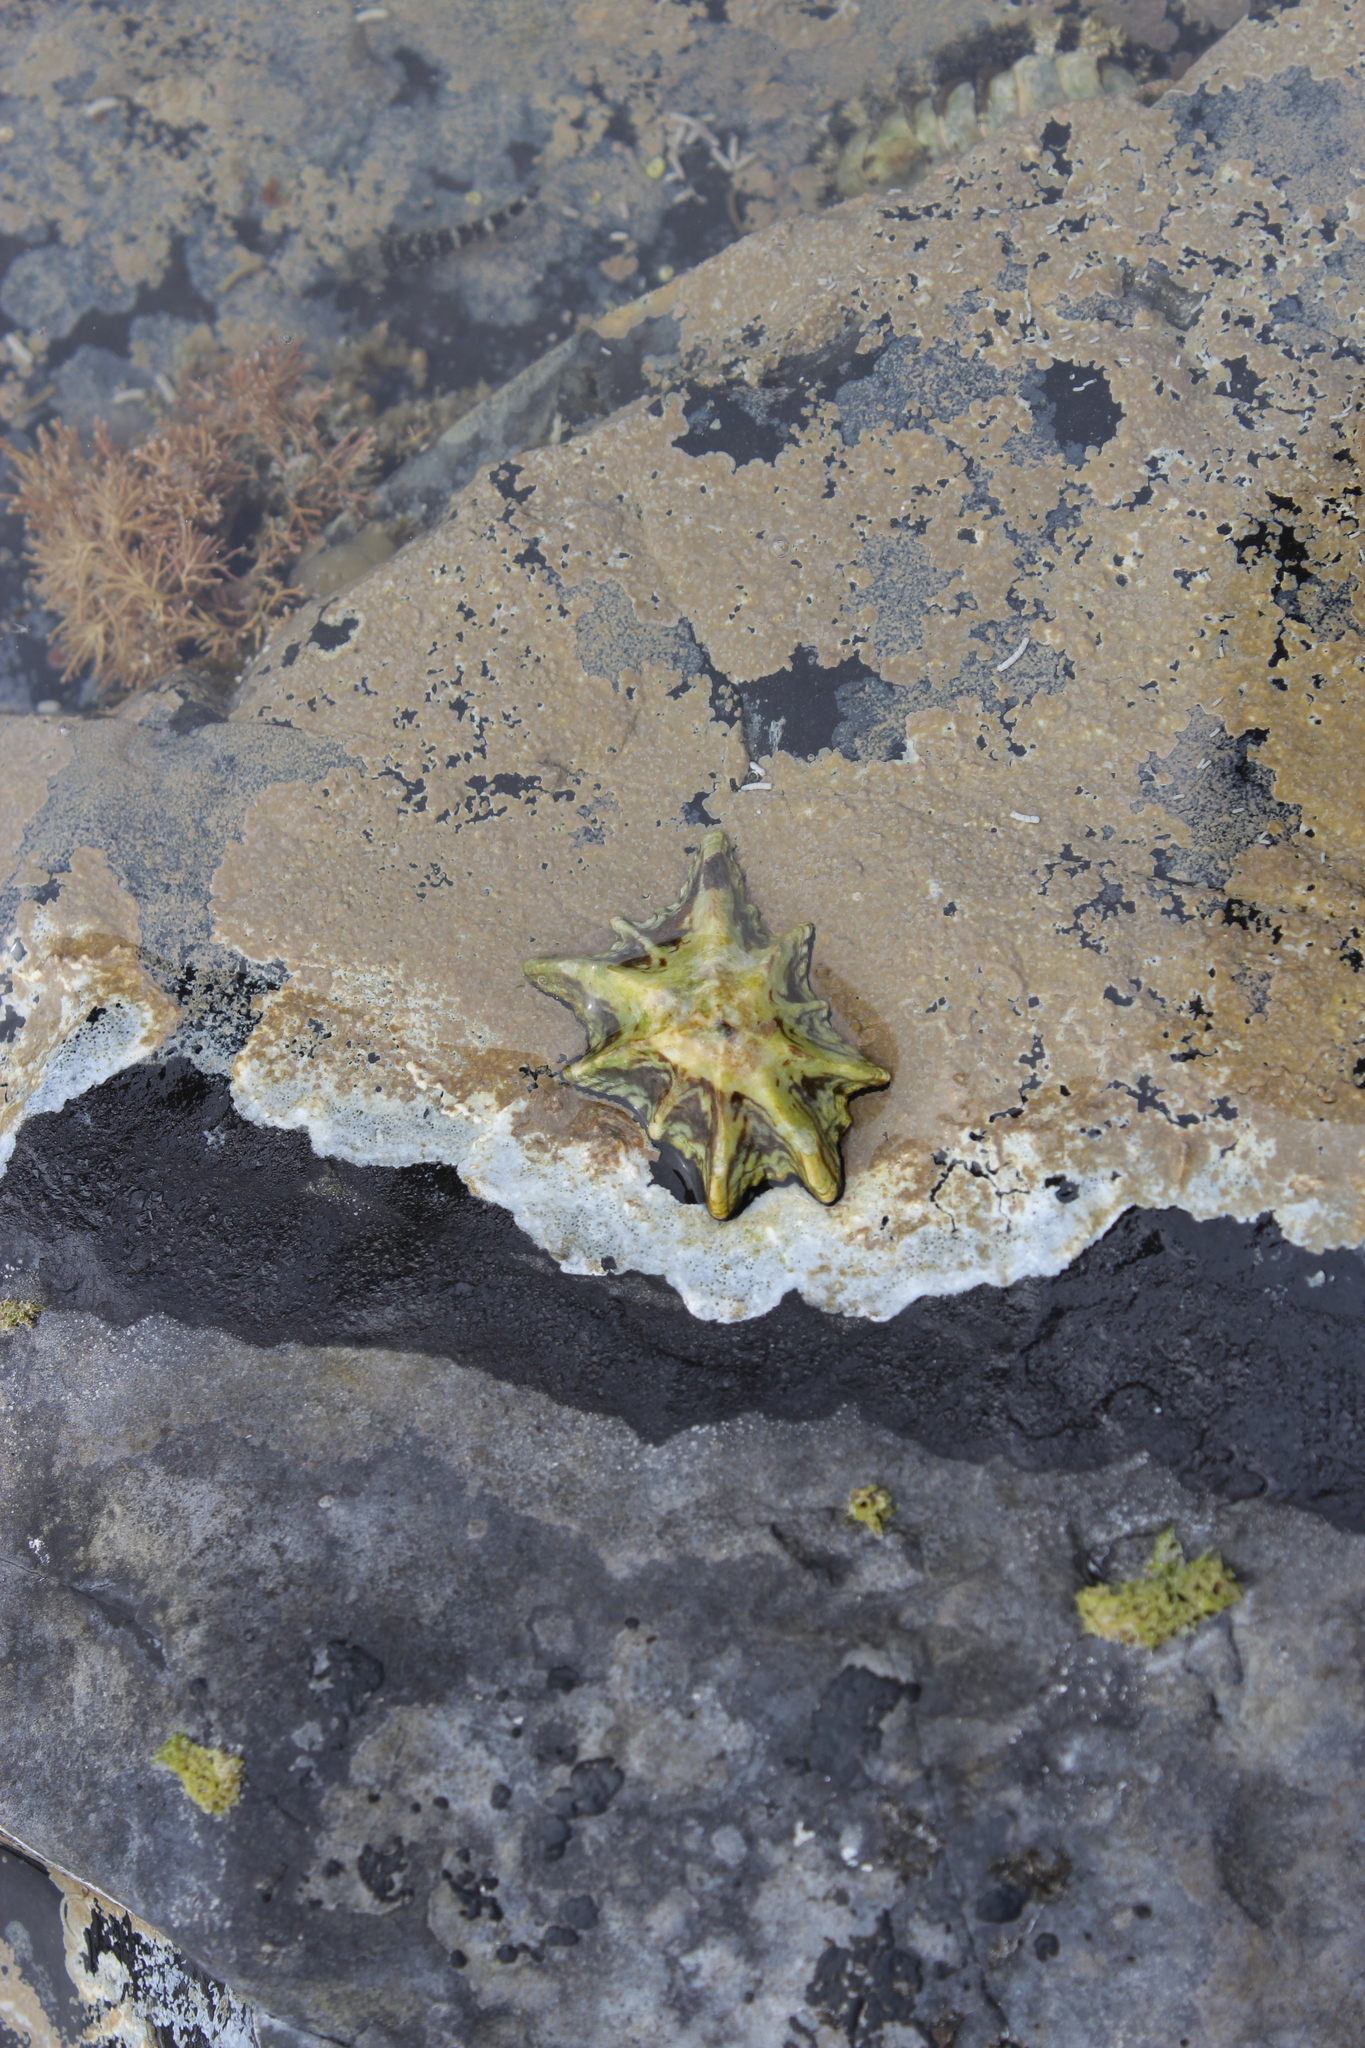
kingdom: Animalia
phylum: Mollusca
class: Gastropoda
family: Lottiidae
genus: Patelloida
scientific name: Patelloida saccharina
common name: Pacific sugar limpet
